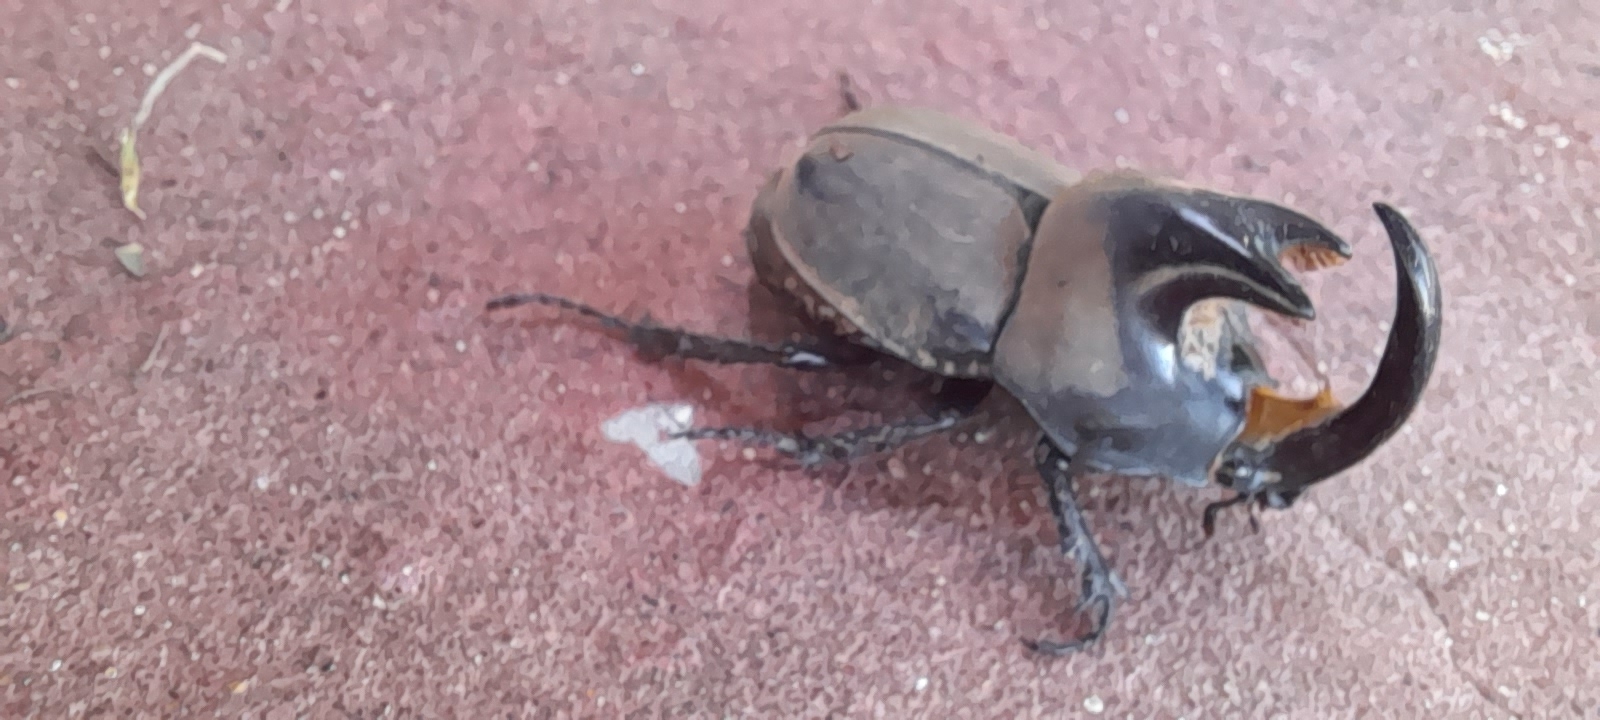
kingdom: Animalia
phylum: Arthropoda
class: Insecta
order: Coleoptera
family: Scarabaeidae
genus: Diloboderus
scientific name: Diloboderus abderus
